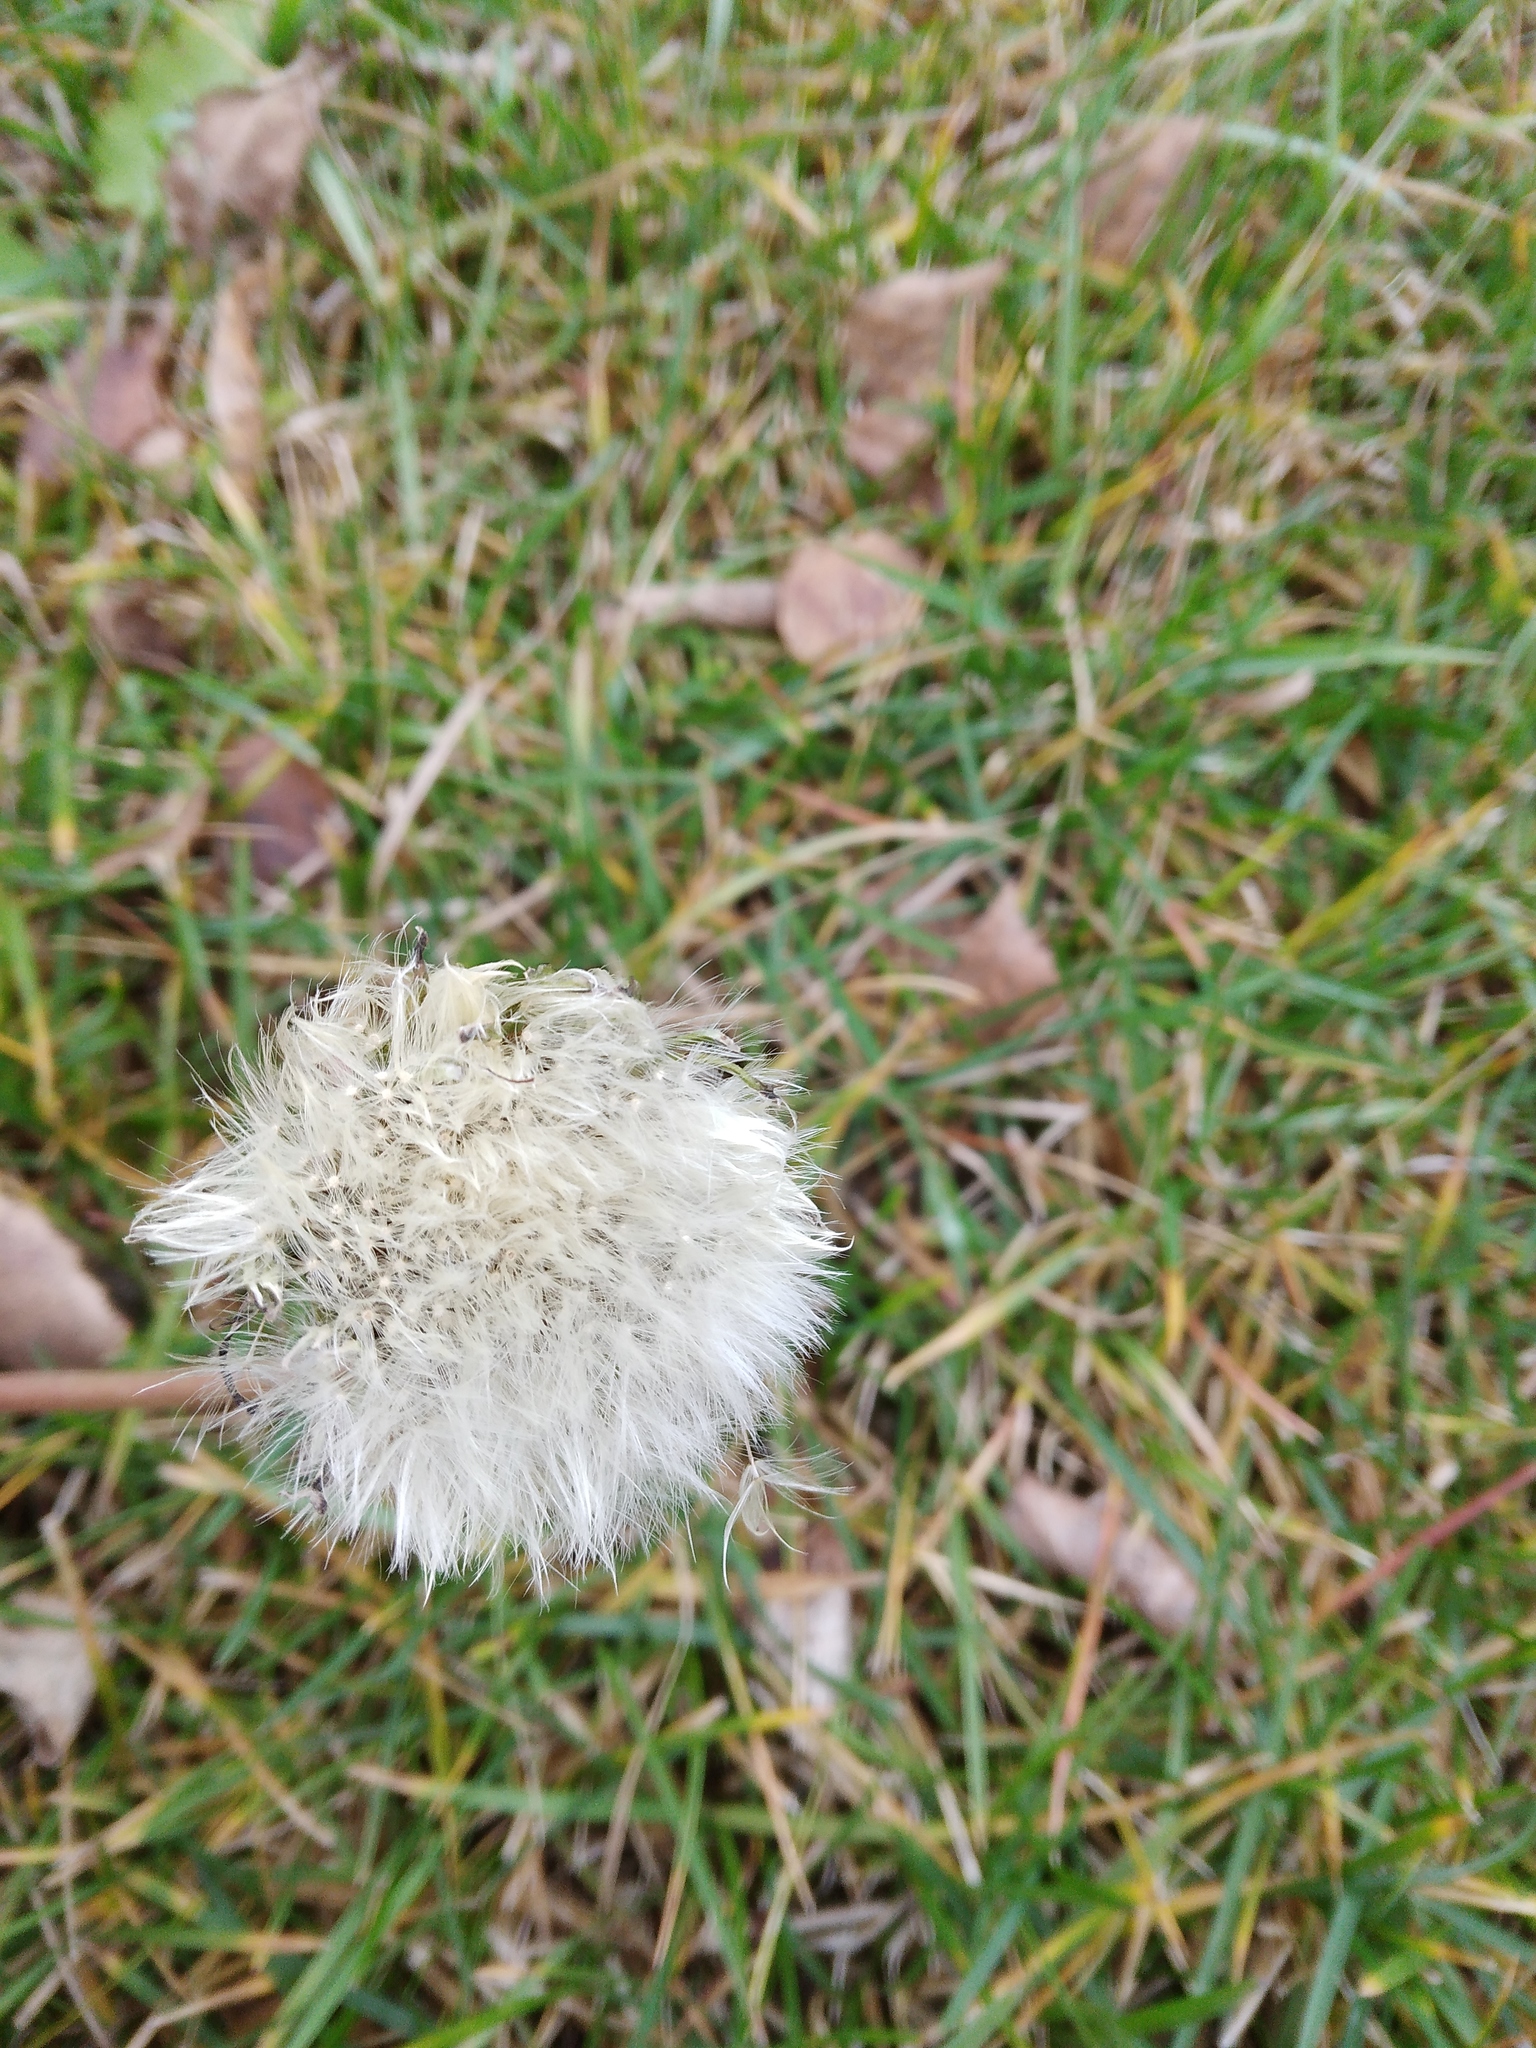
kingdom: Plantae
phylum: Tracheophyta
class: Magnoliopsida
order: Asterales
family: Asteraceae
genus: Taraxacum
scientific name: Taraxacum officinale
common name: Common dandelion
